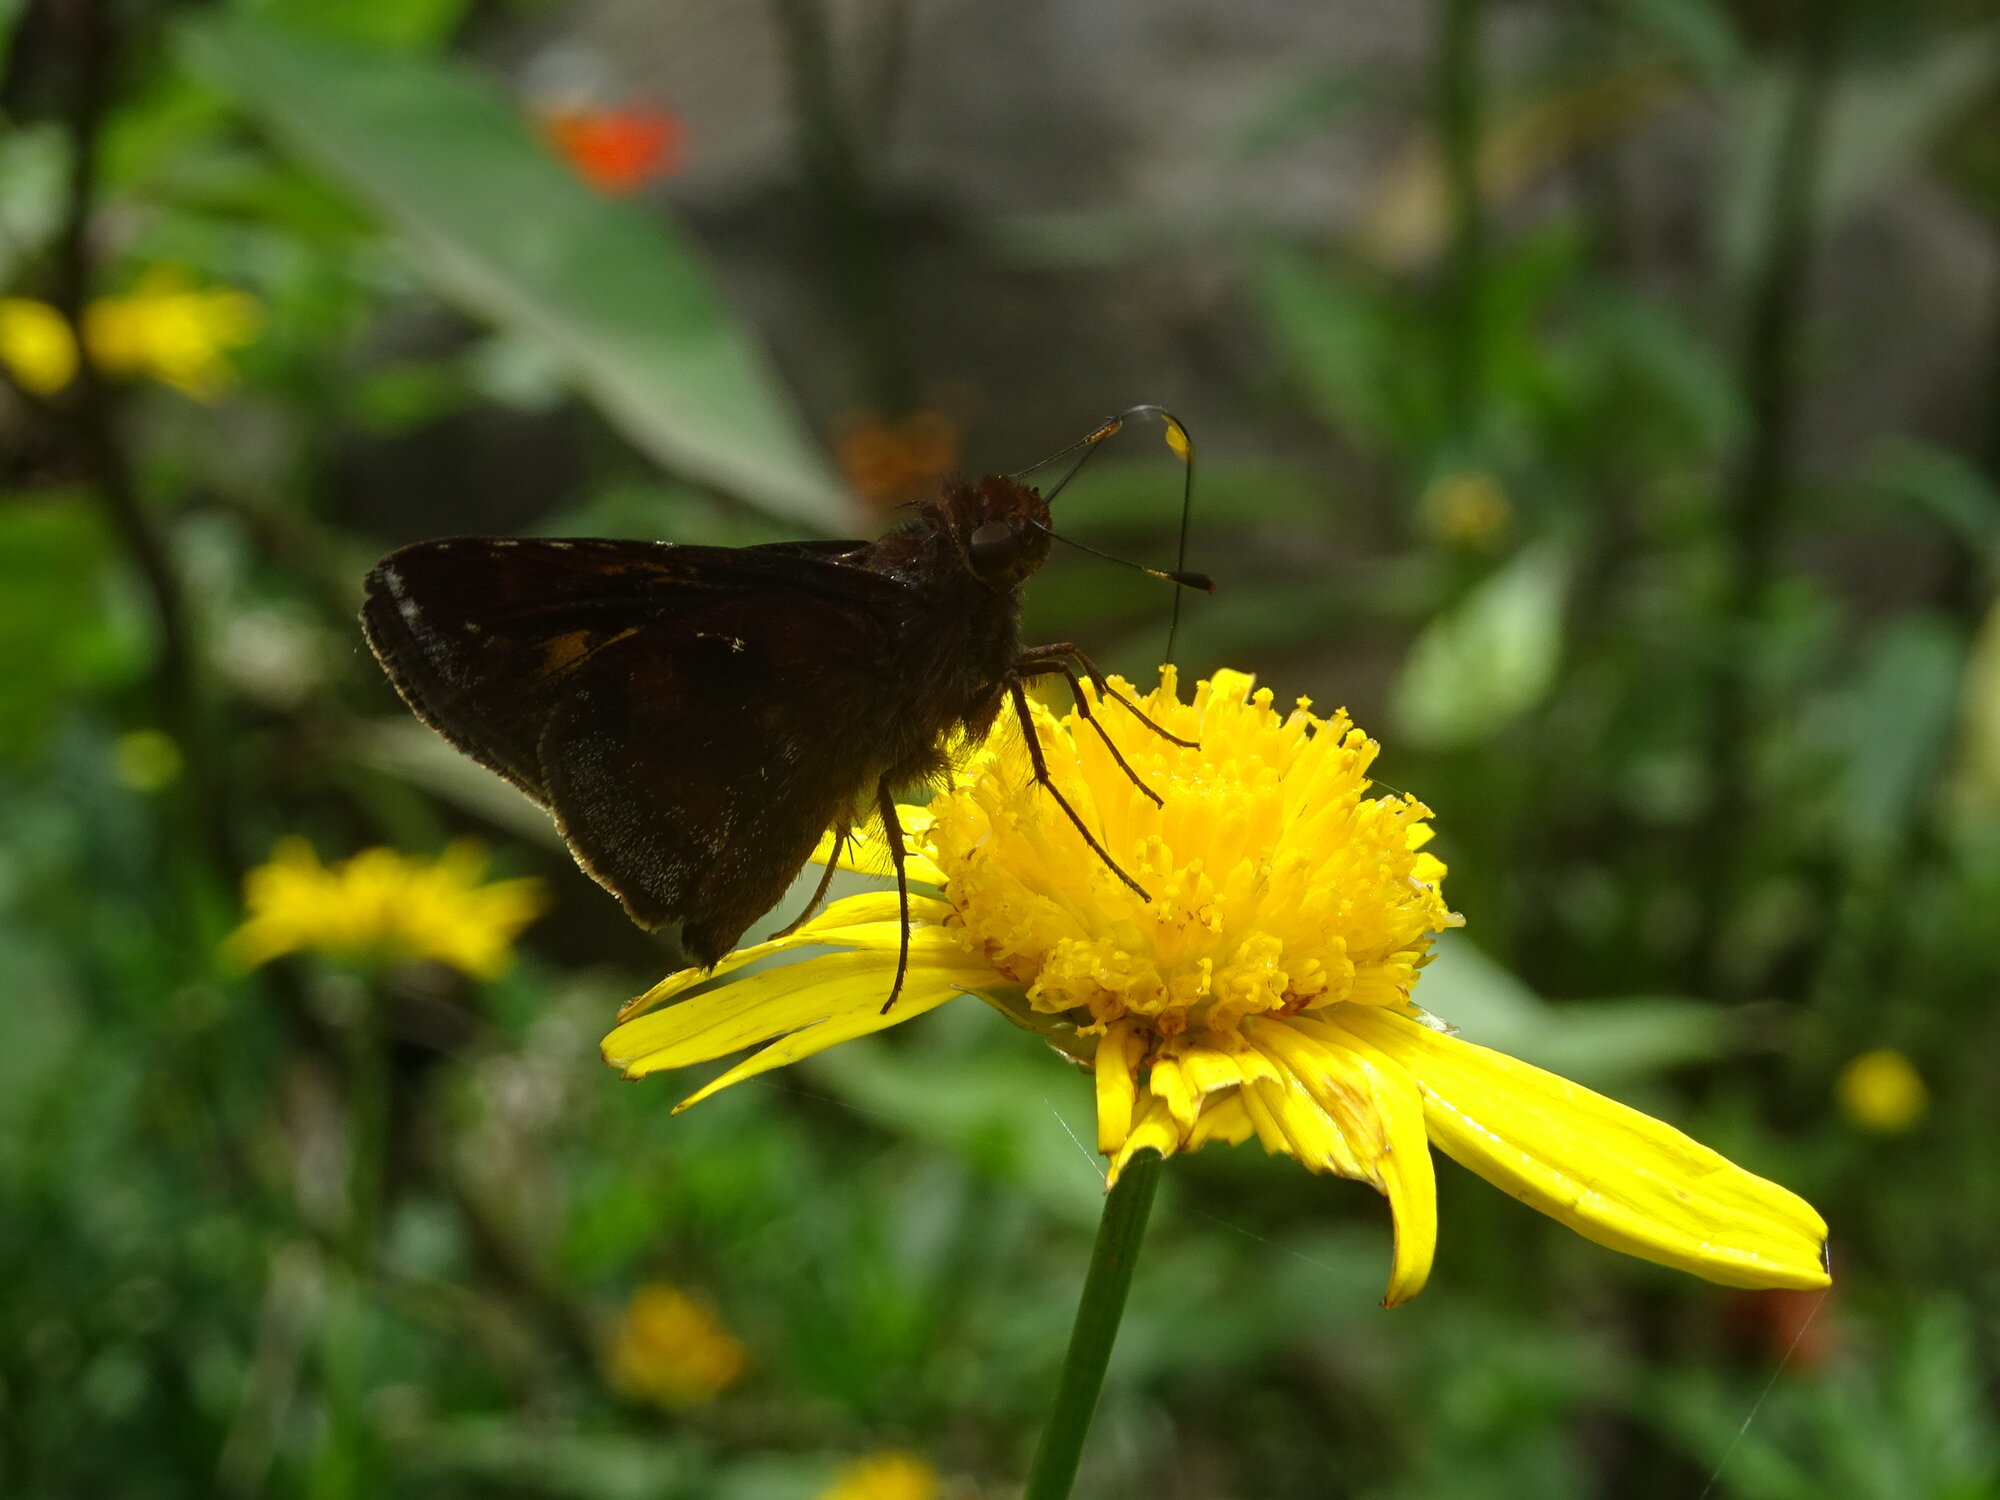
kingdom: Animalia
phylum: Arthropoda
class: Insecta
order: Lepidoptera
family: Hesperiidae
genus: Pompeius
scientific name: Pompeius pompeius
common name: Pompeius skipper
